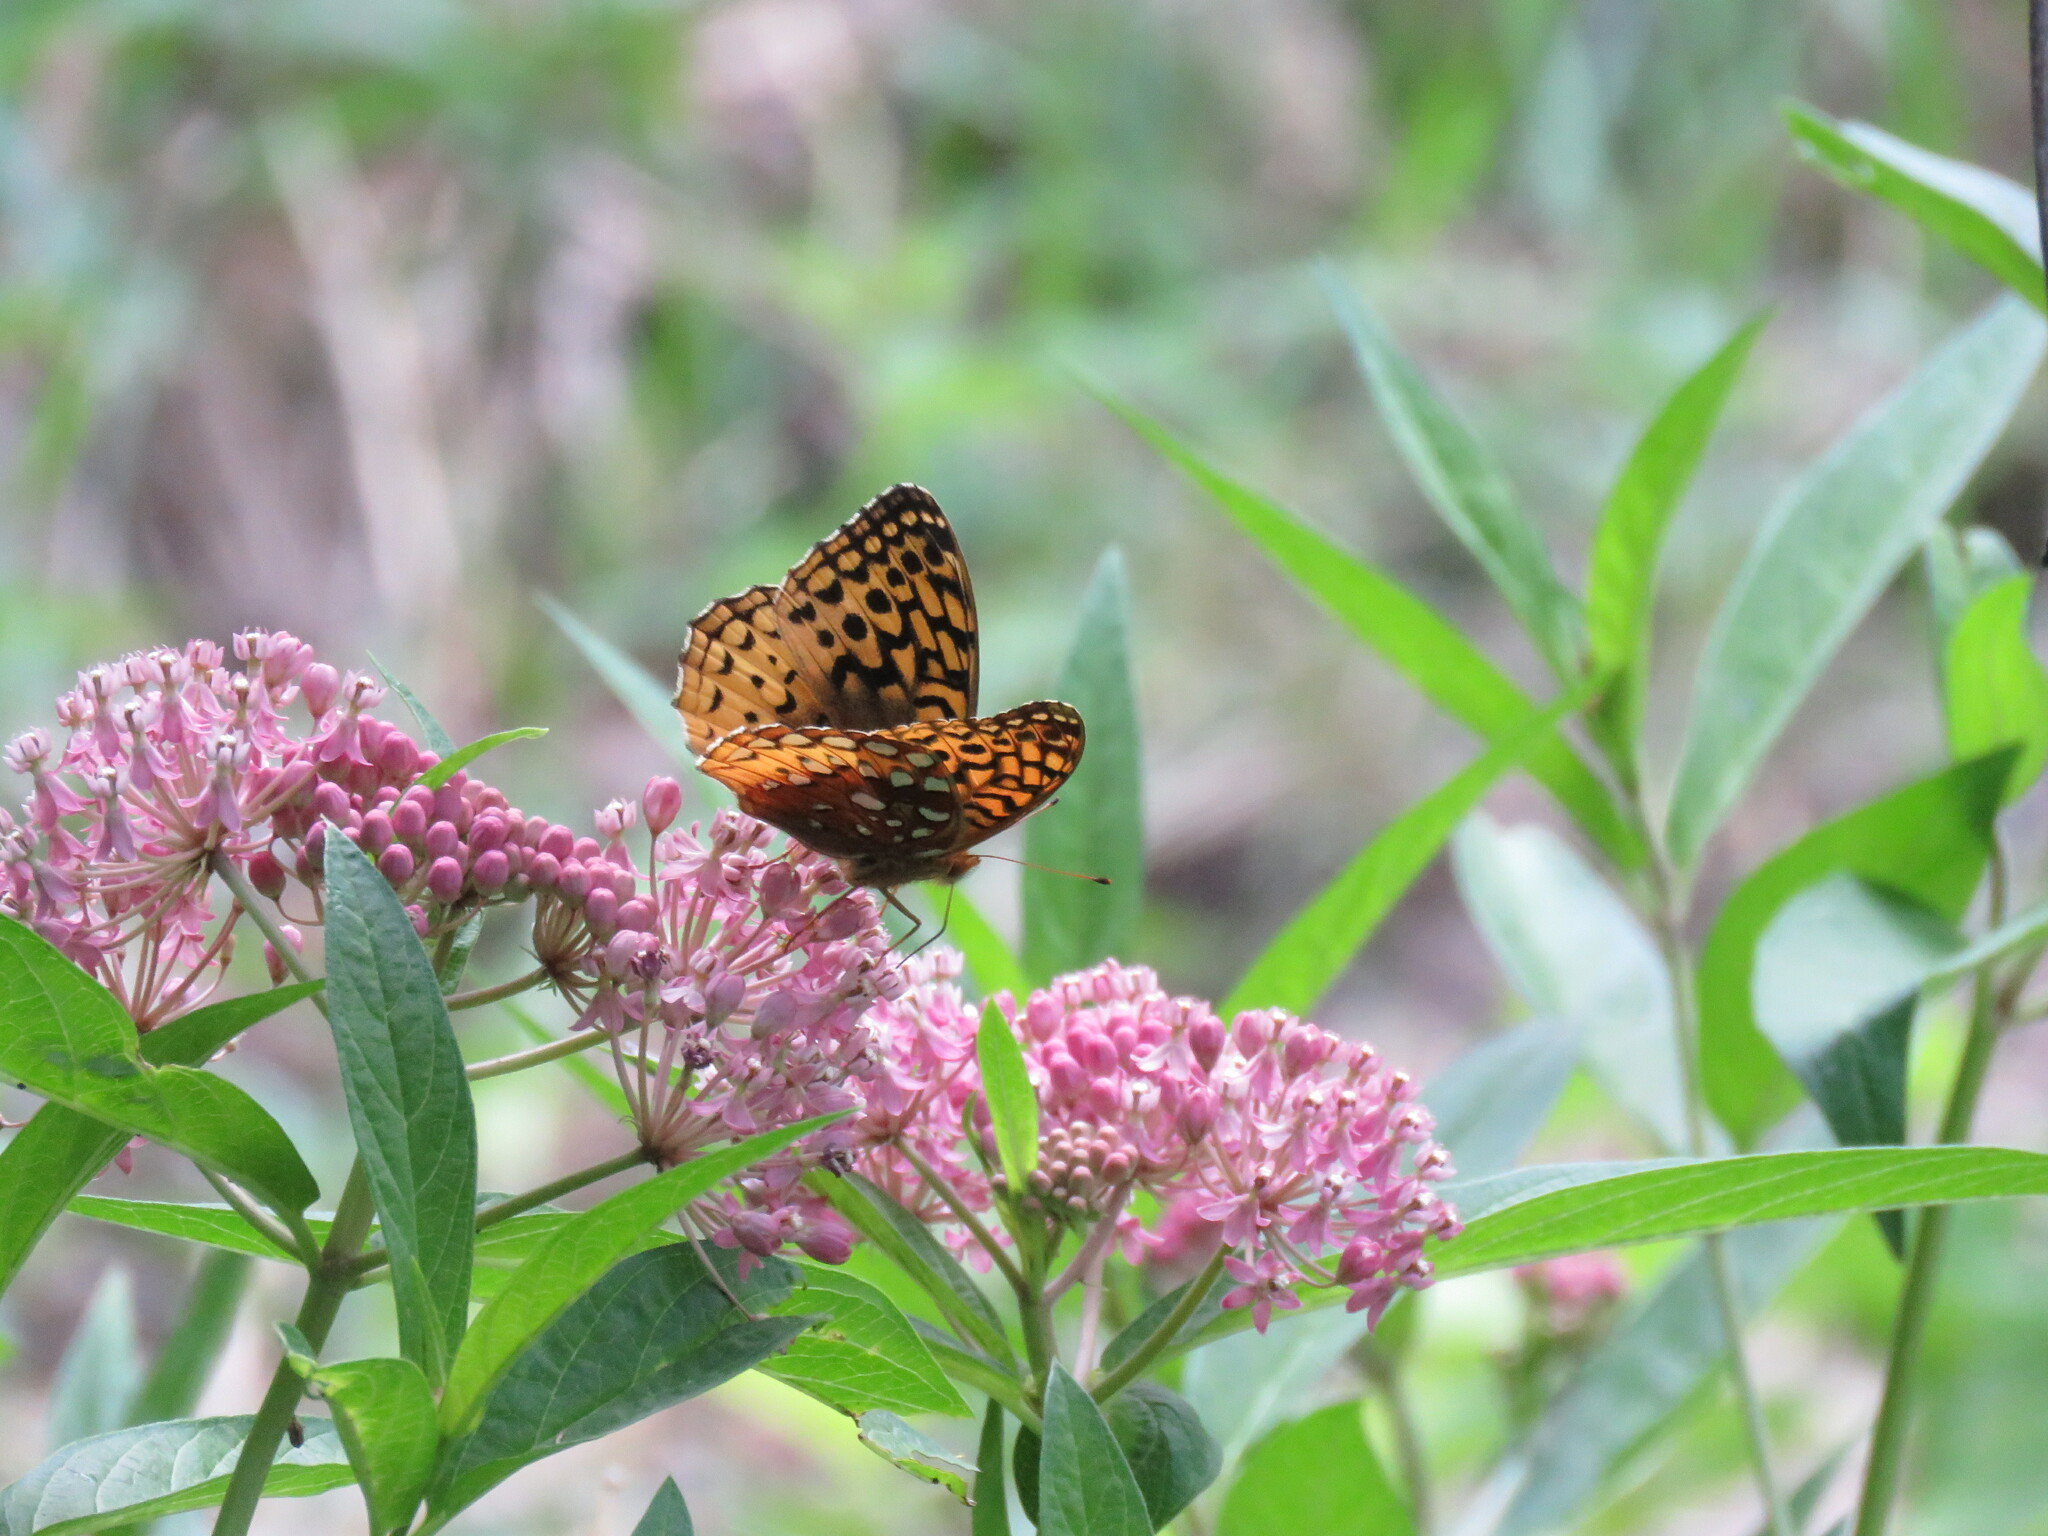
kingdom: Animalia
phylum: Arthropoda
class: Insecta
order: Lepidoptera
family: Nymphalidae
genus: Speyeria
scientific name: Speyeria cybele
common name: Great spangled fritillary
